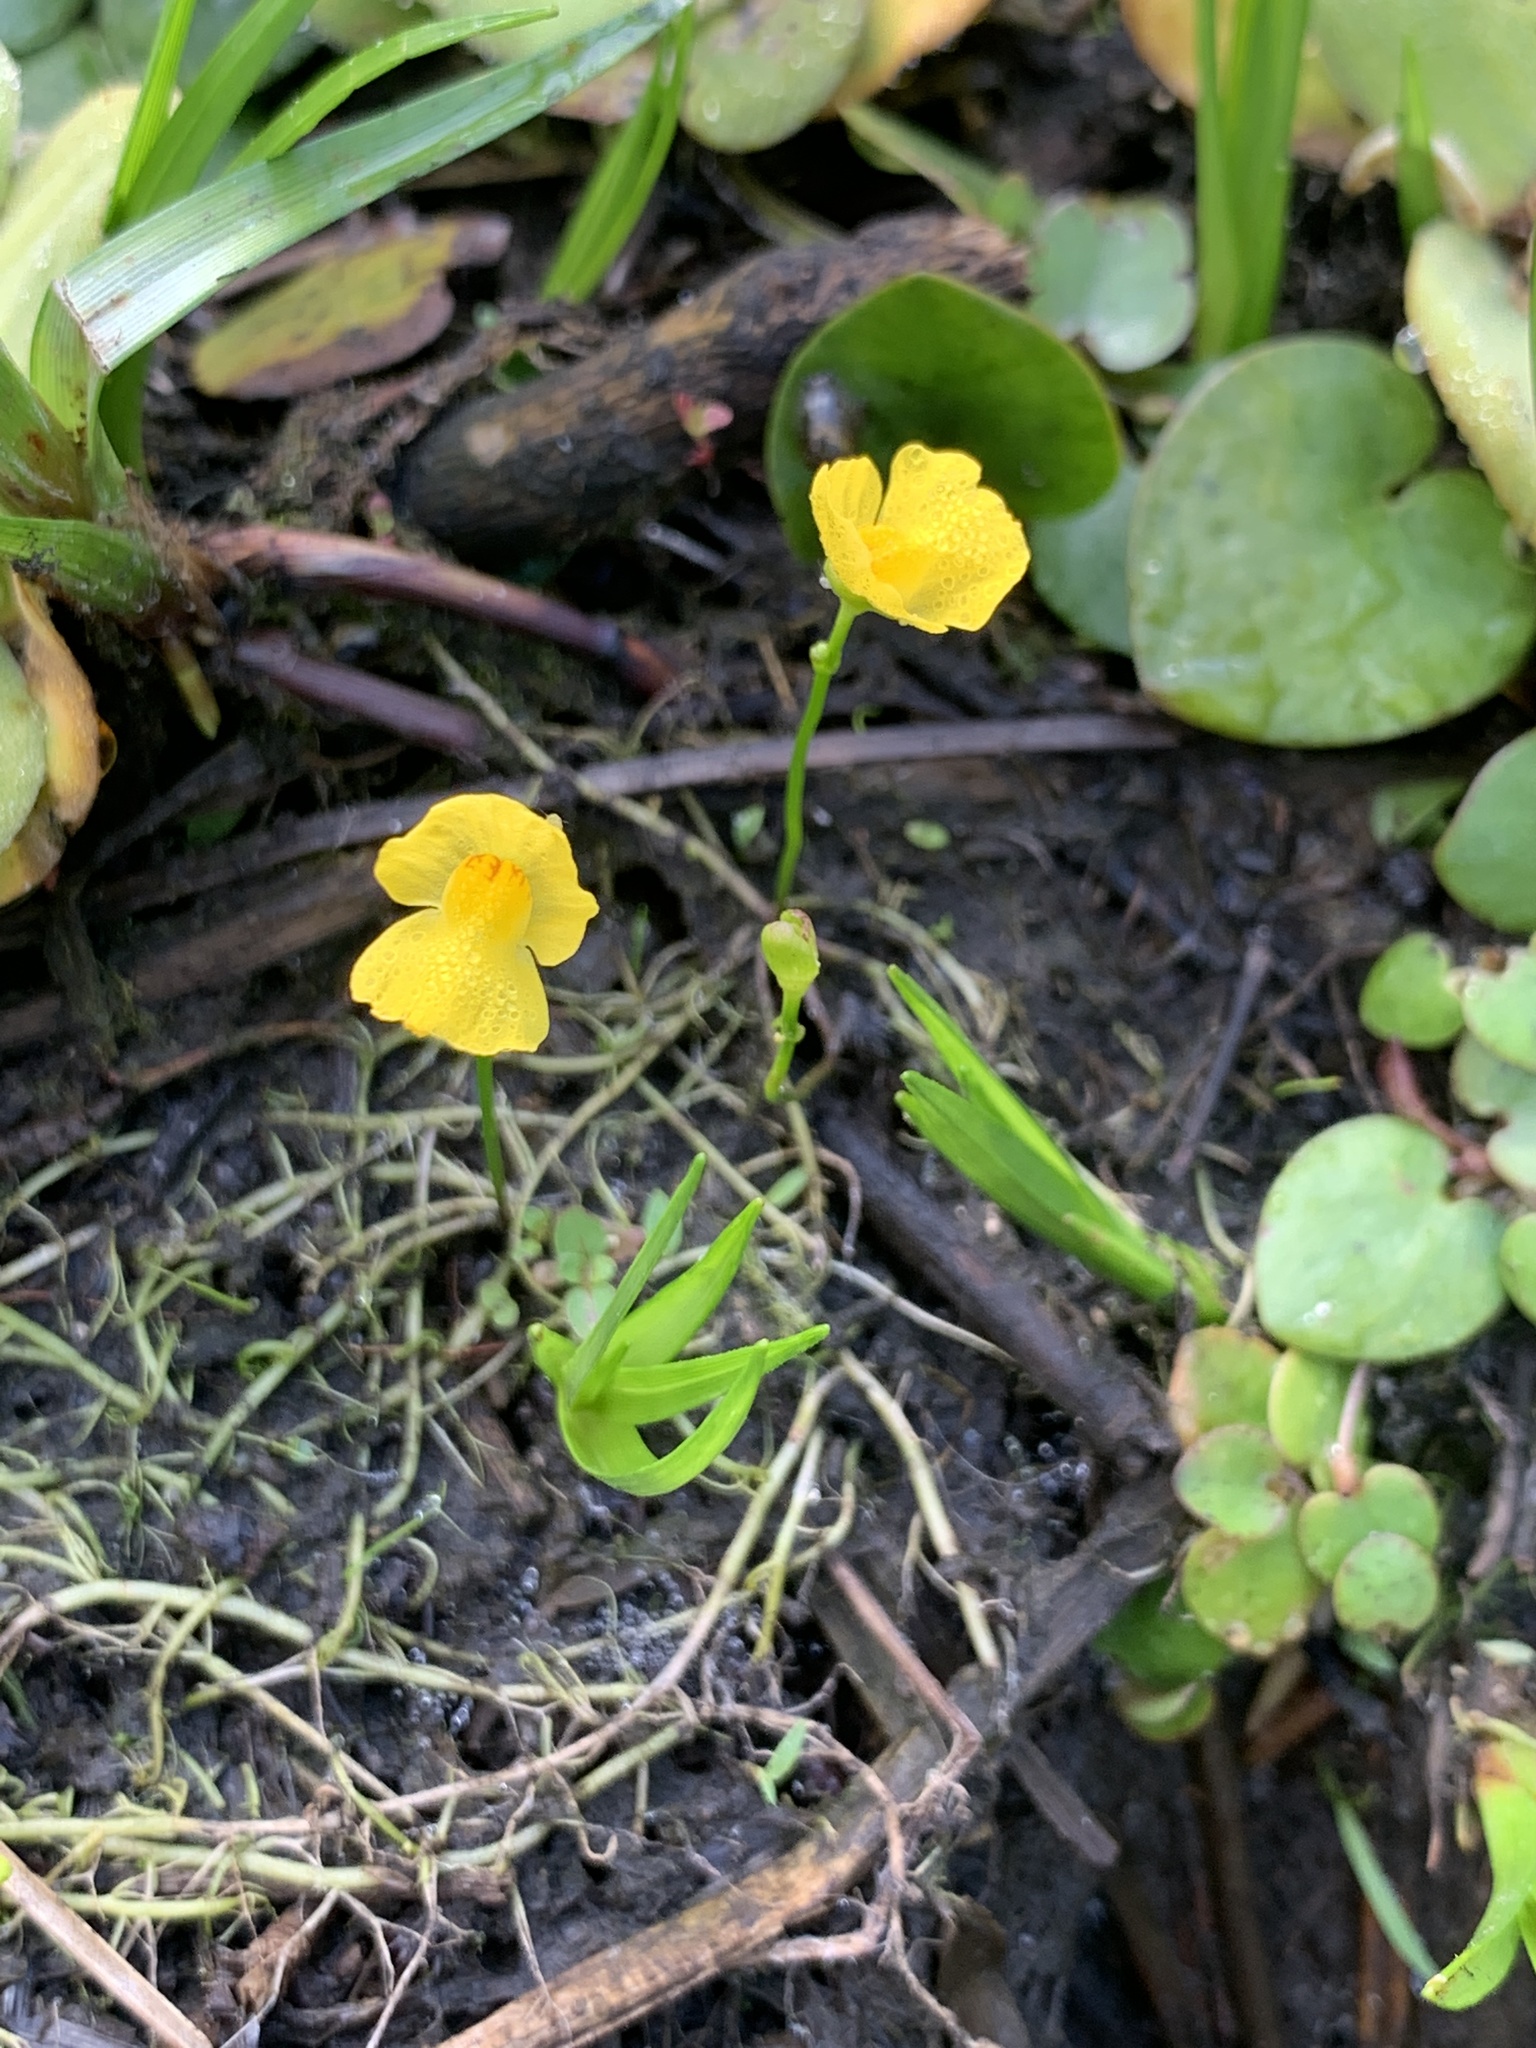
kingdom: Plantae
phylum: Tracheophyta
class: Magnoliopsida
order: Lamiales
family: Lentibulariaceae
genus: Utricularia
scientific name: Utricularia gibba
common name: Humped bladderwort
